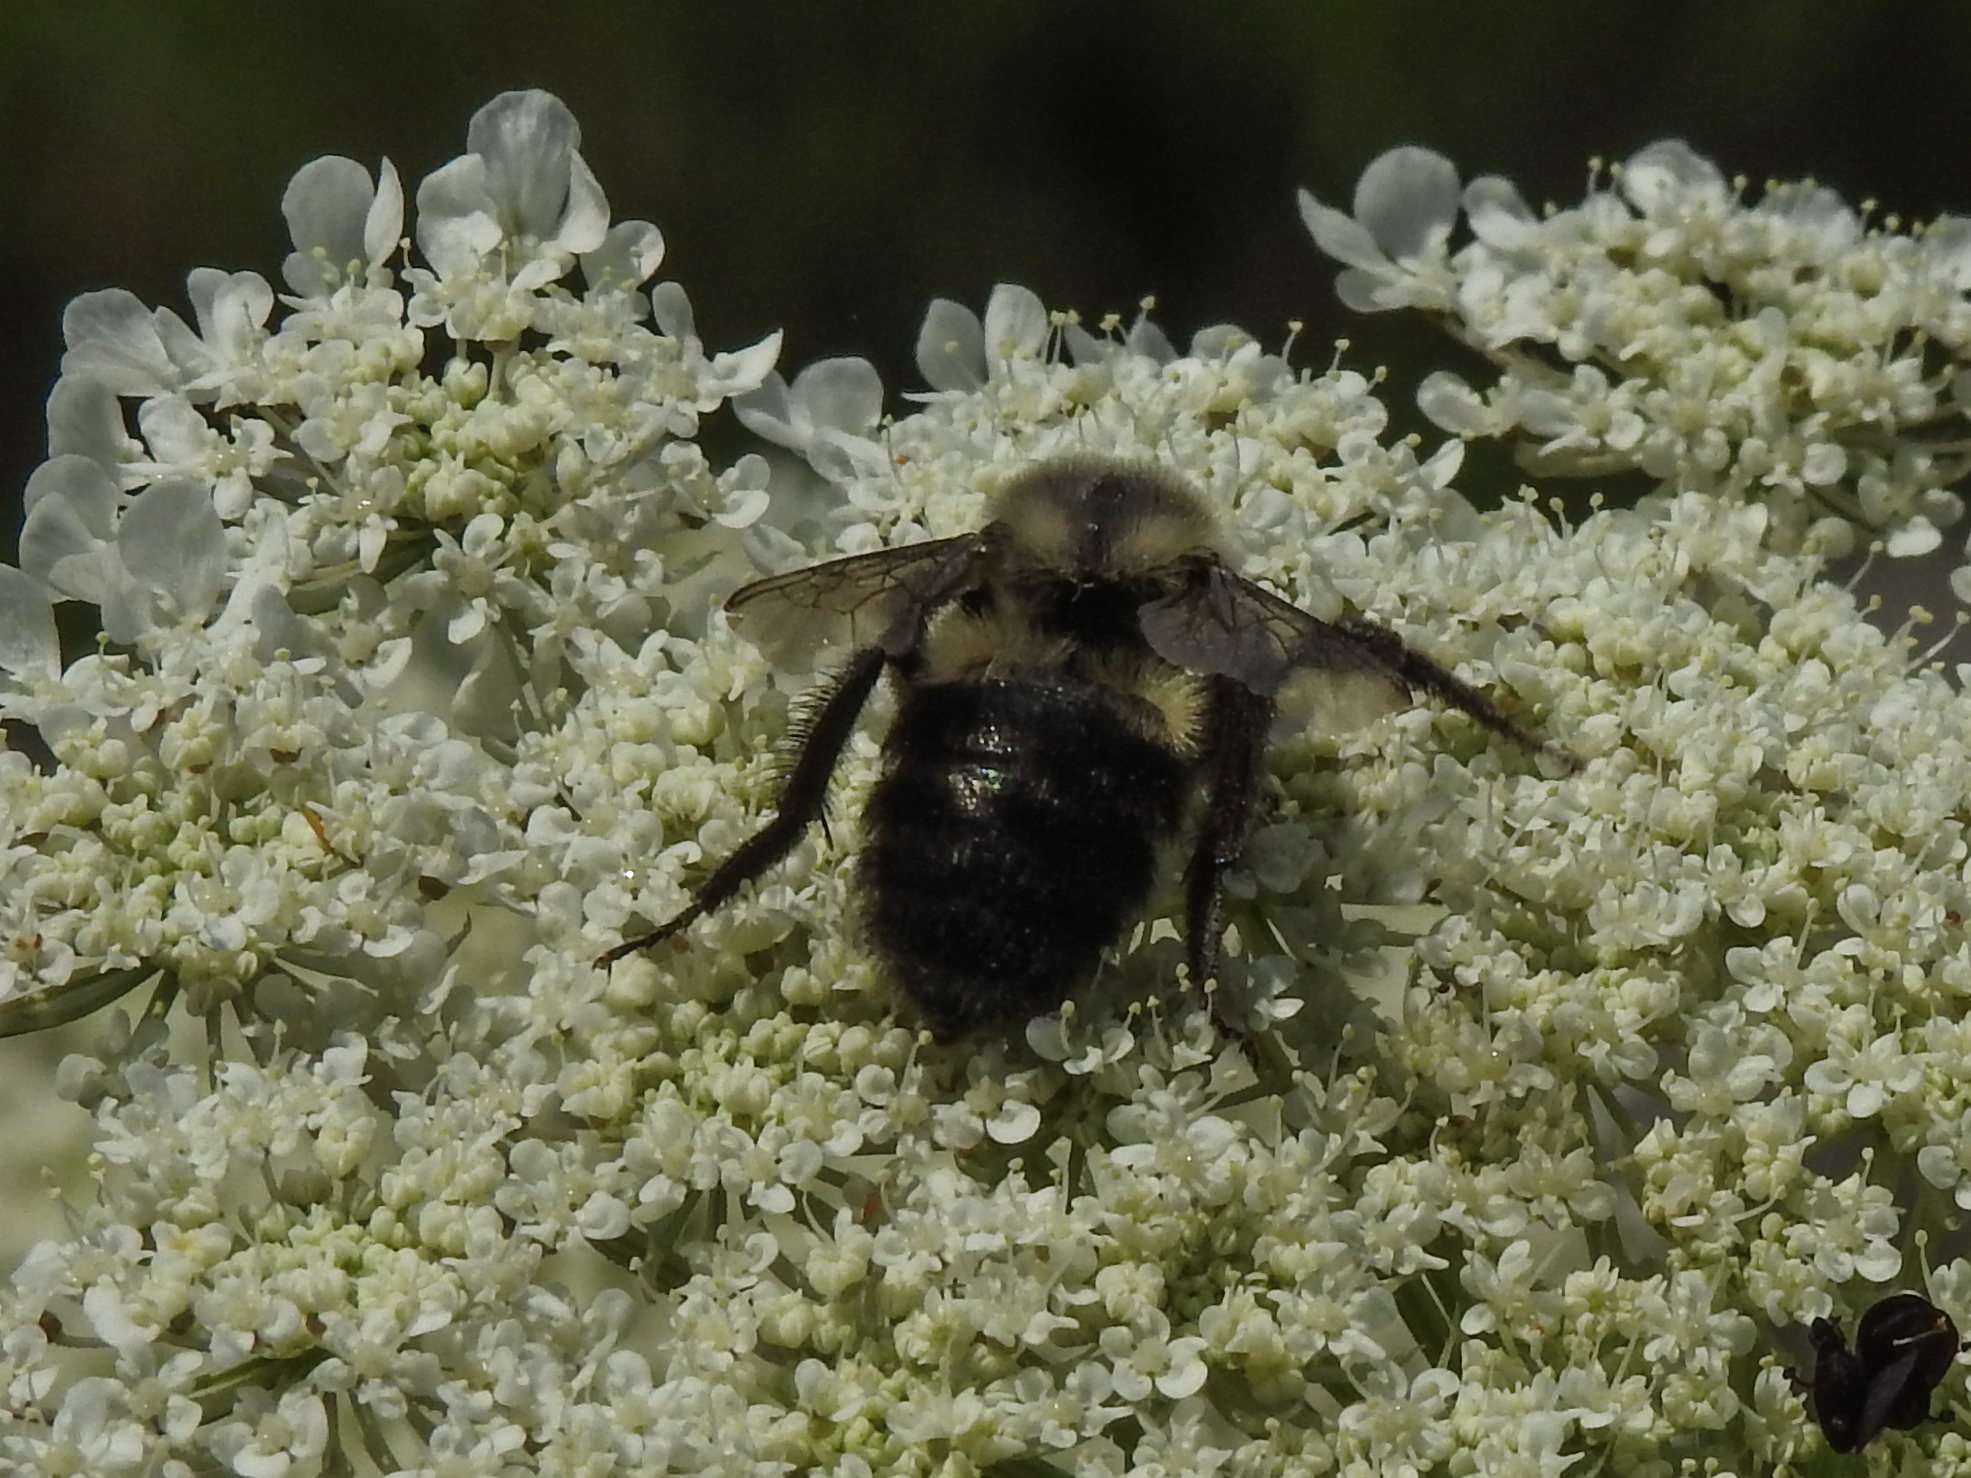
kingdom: Animalia
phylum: Arthropoda
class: Insecta
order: Hymenoptera
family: Apidae
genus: Bombus
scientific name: Bombus impatiens
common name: Common eastern bumble bee
